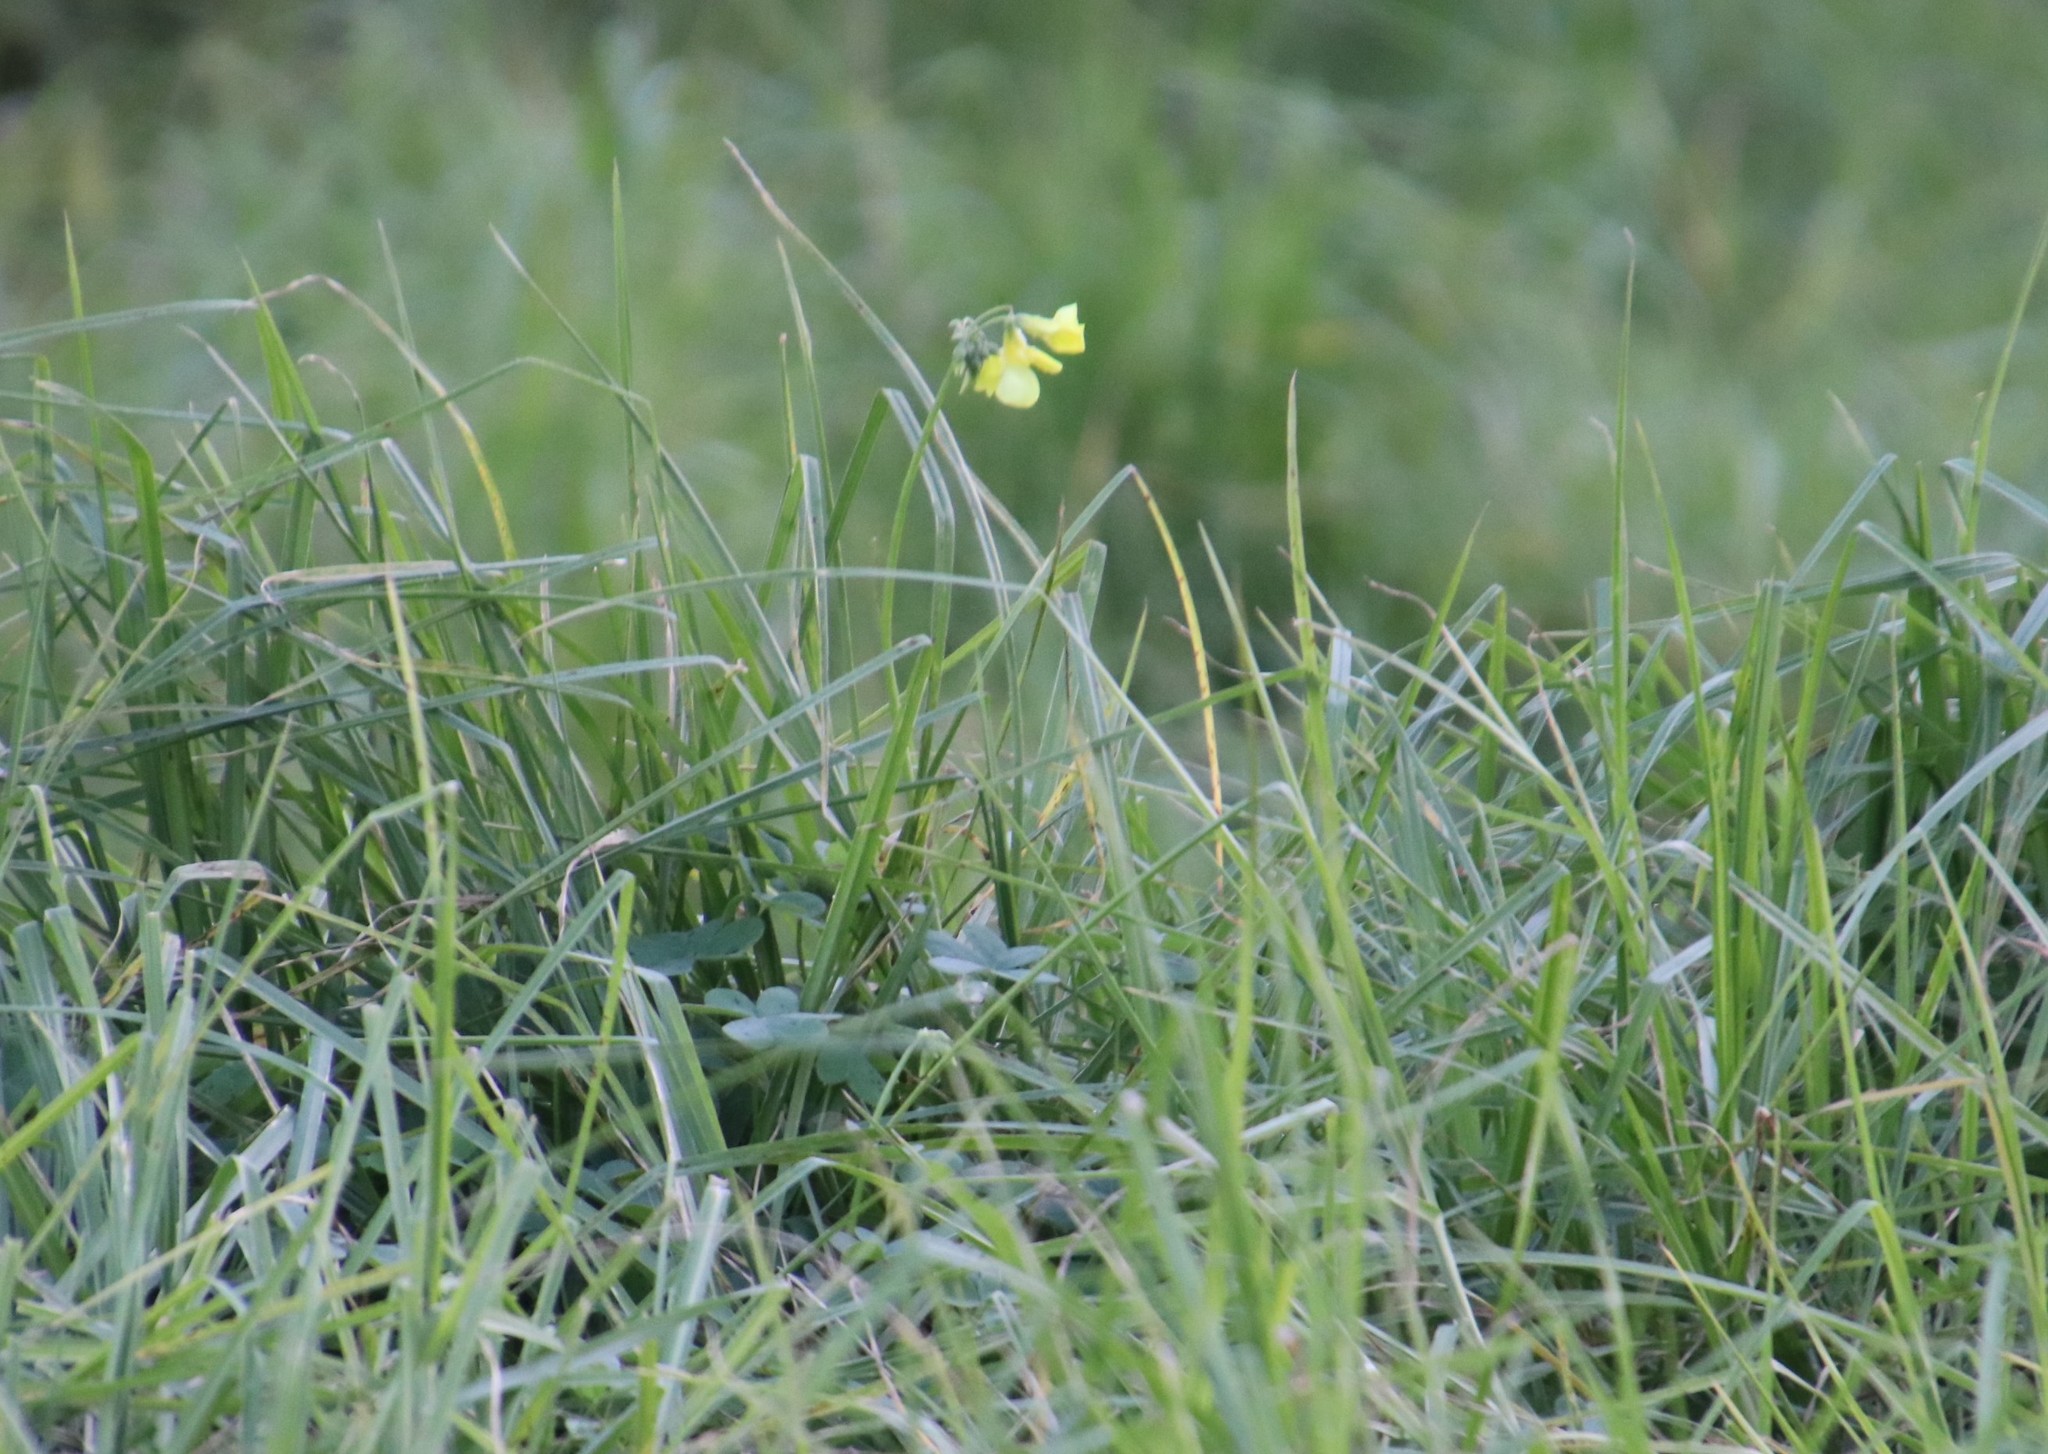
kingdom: Plantae
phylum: Tracheophyta
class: Magnoliopsida
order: Oxalidales
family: Oxalidaceae
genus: Oxalis
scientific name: Oxalis pes-caprae
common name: Bermuda-buttercup
